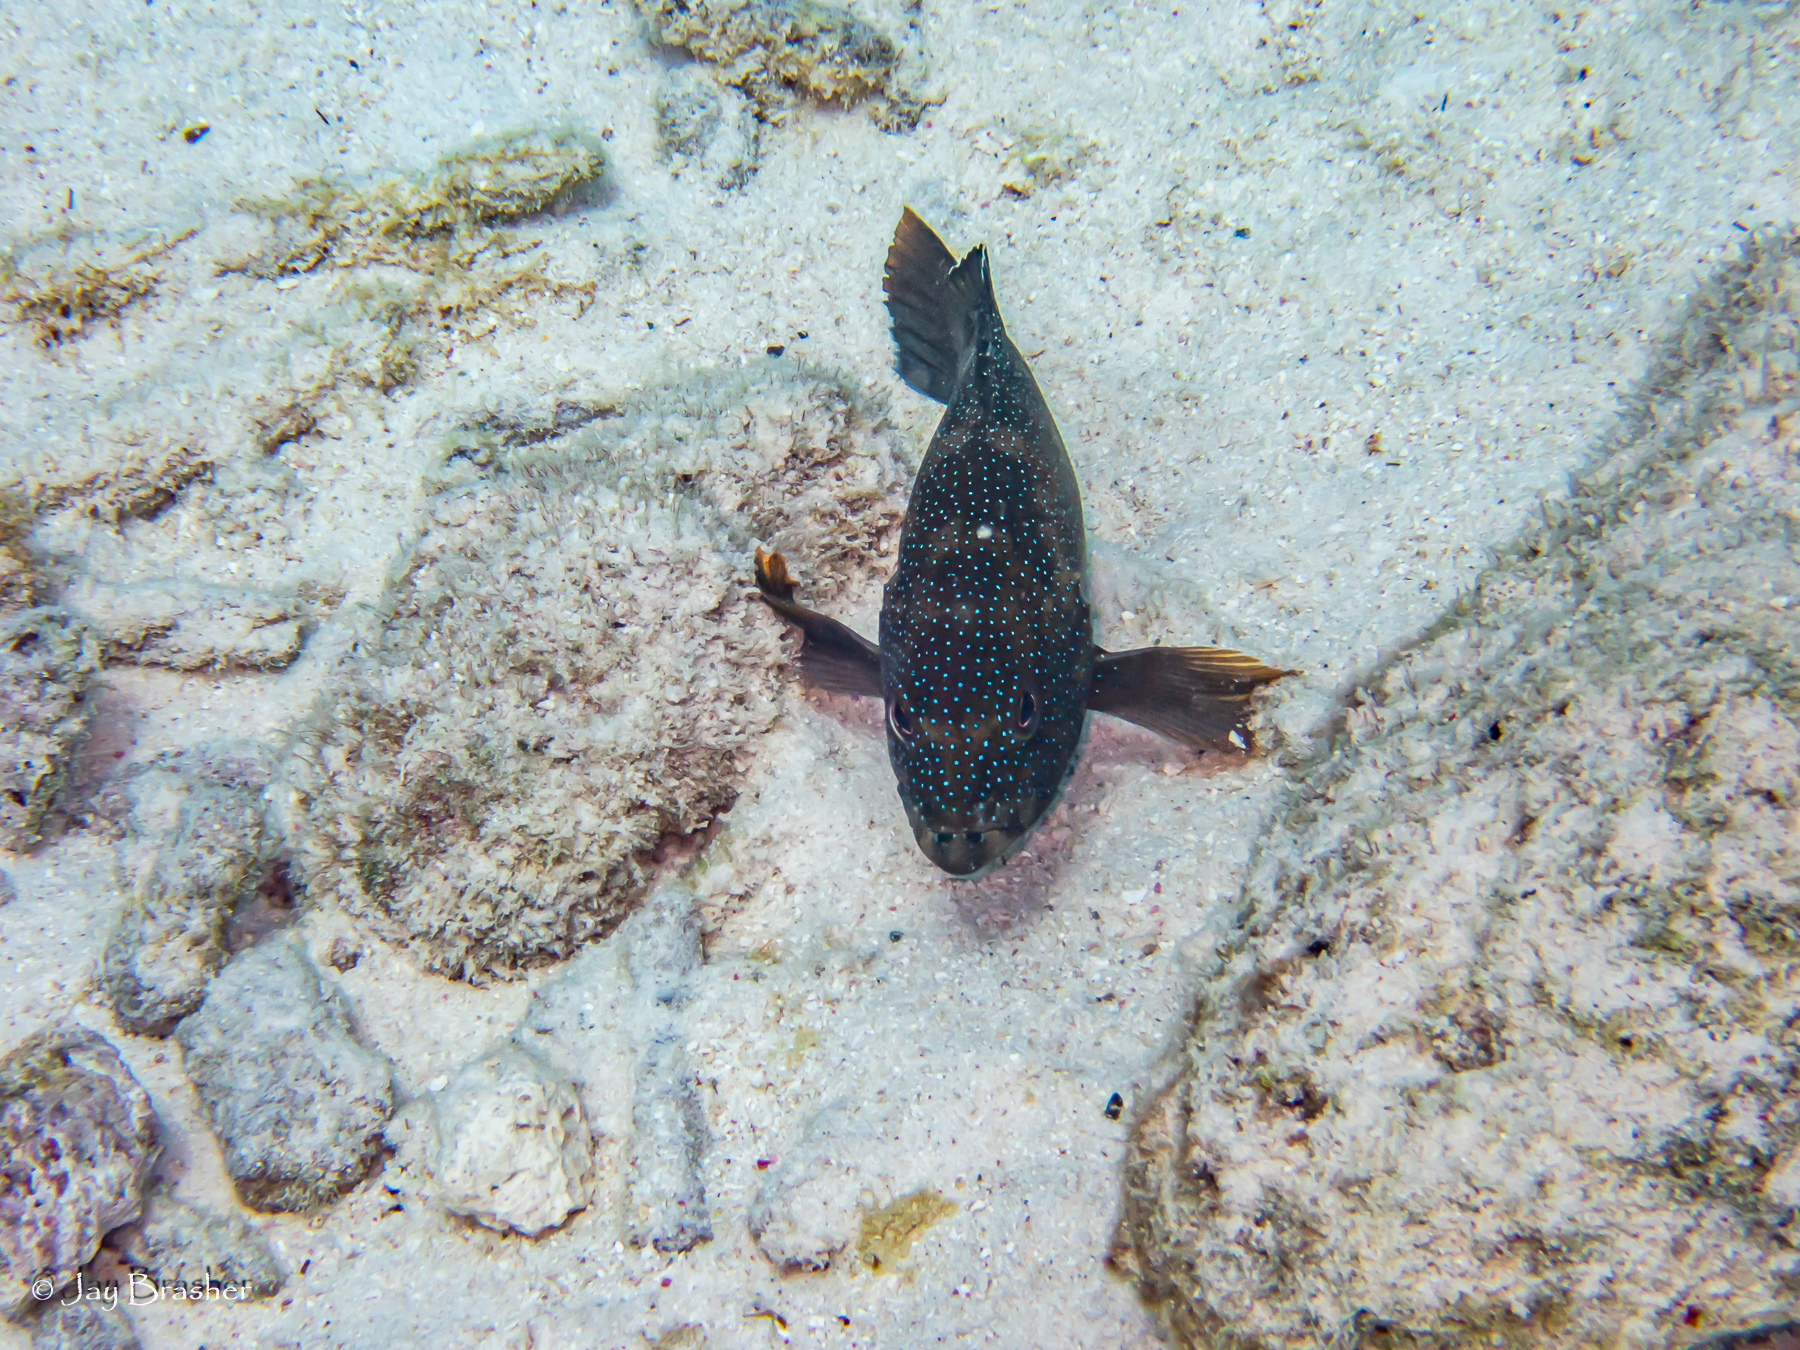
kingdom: Animalia
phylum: Chordata
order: Perciformes
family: Serranidae
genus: Cephalopholis
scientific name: Cephalopholis fulva
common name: Butterfish
